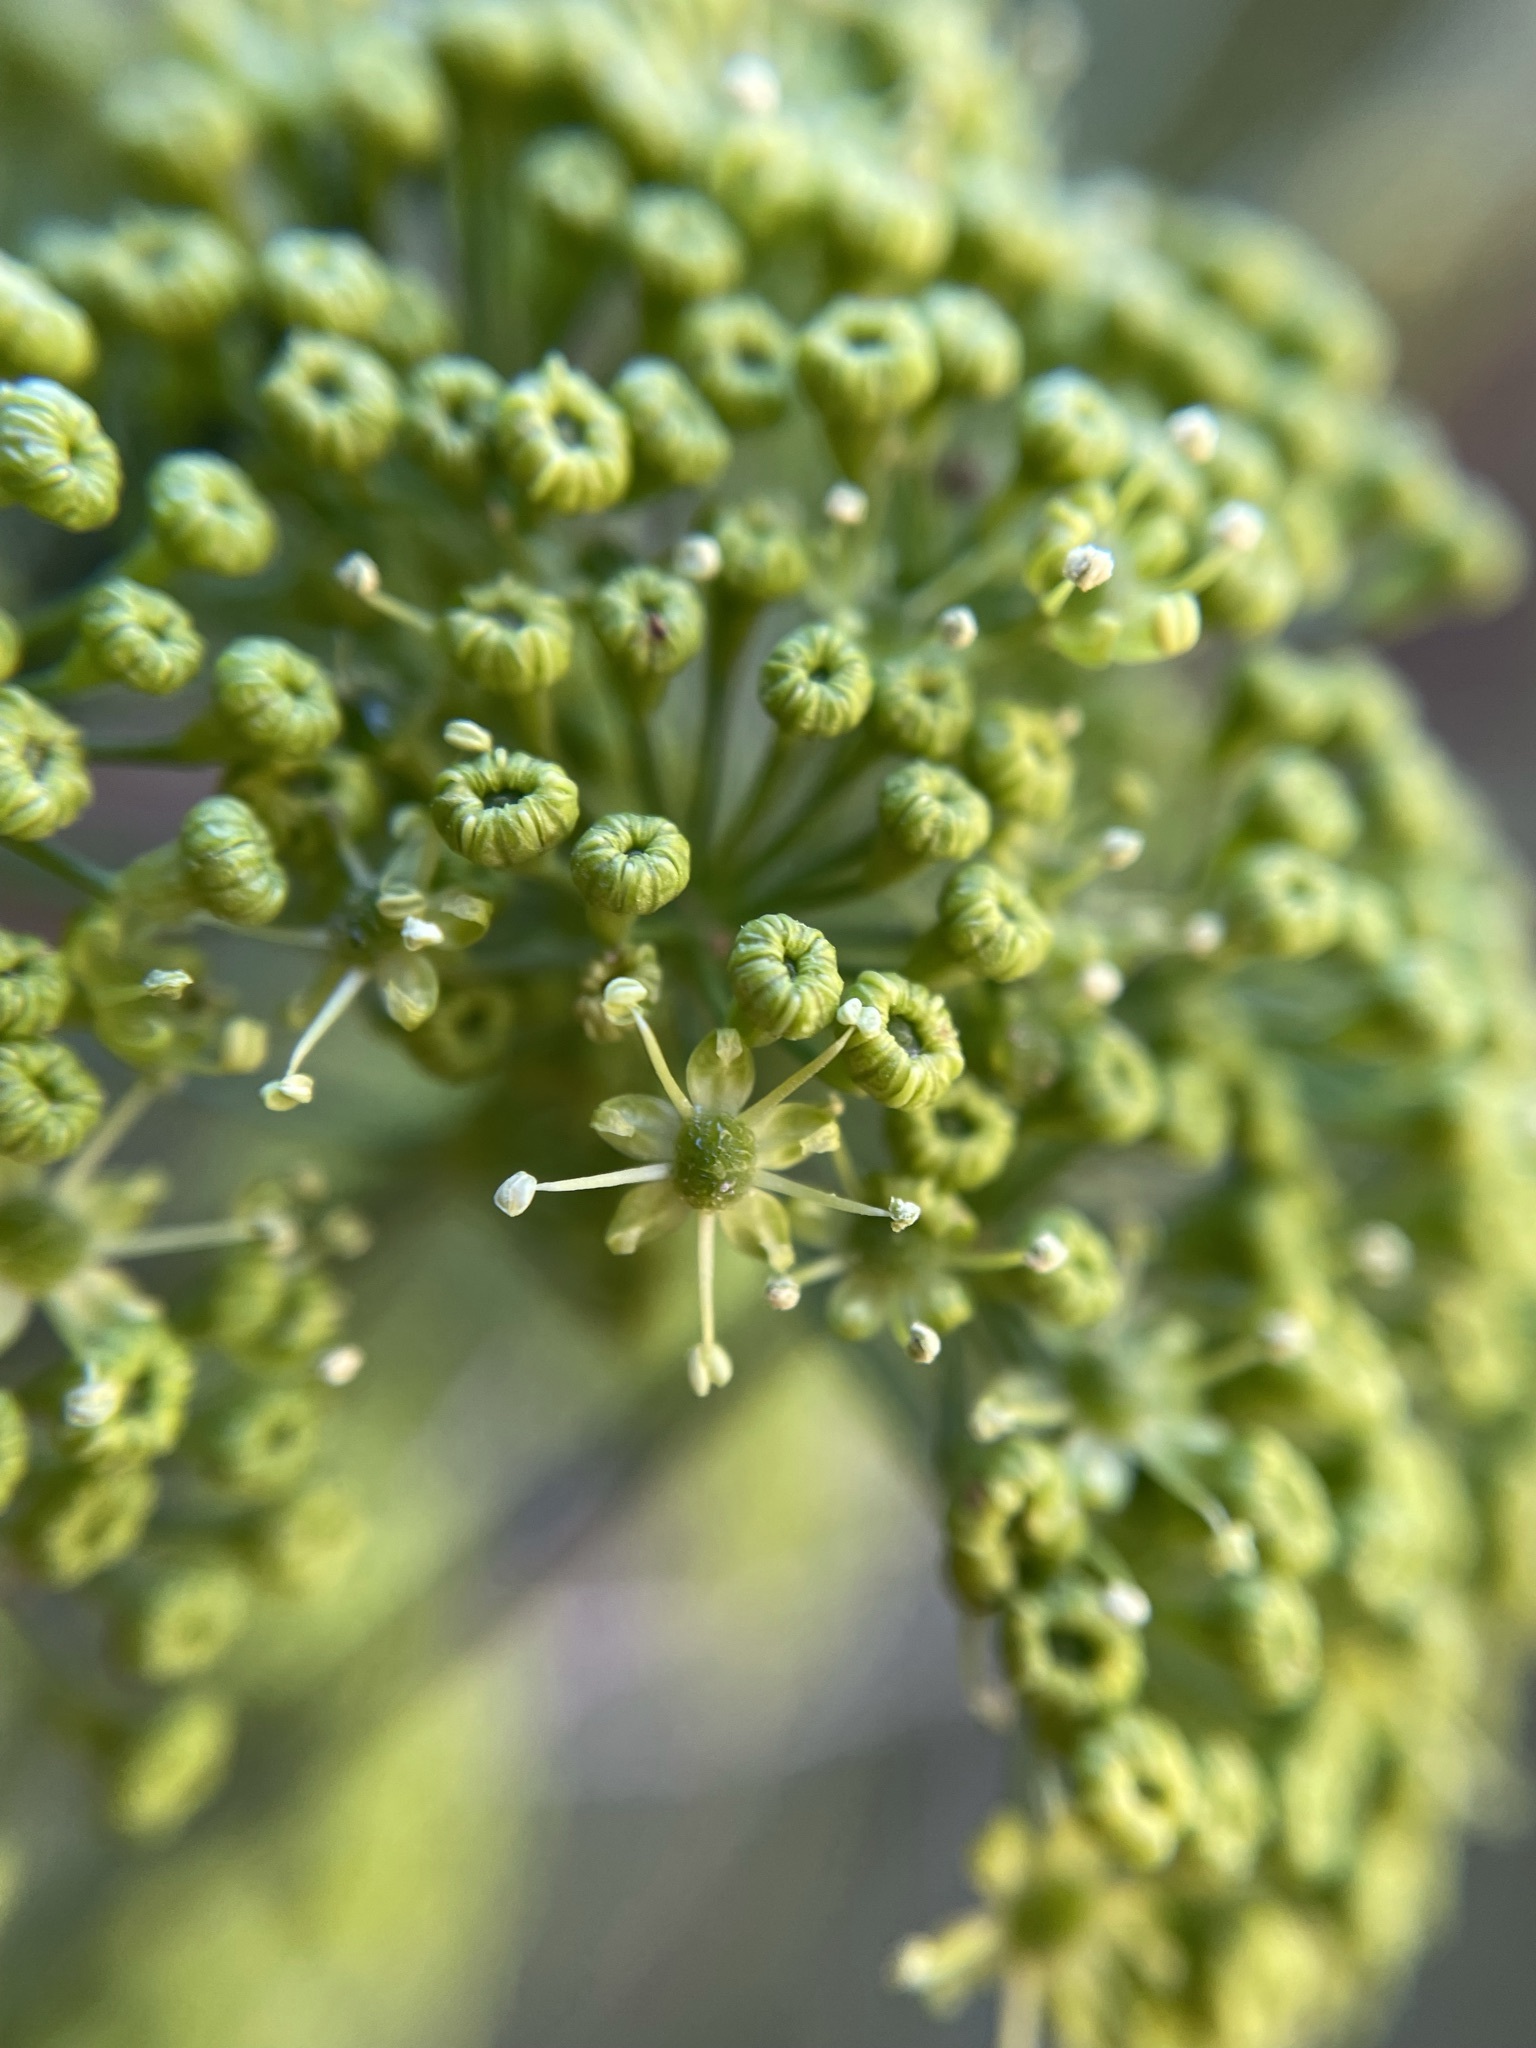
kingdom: Plantae
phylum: Tracheophyta
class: Magnoliopsida
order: Apiales
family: Apiaceae
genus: Anginon
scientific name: Anginon difforme
